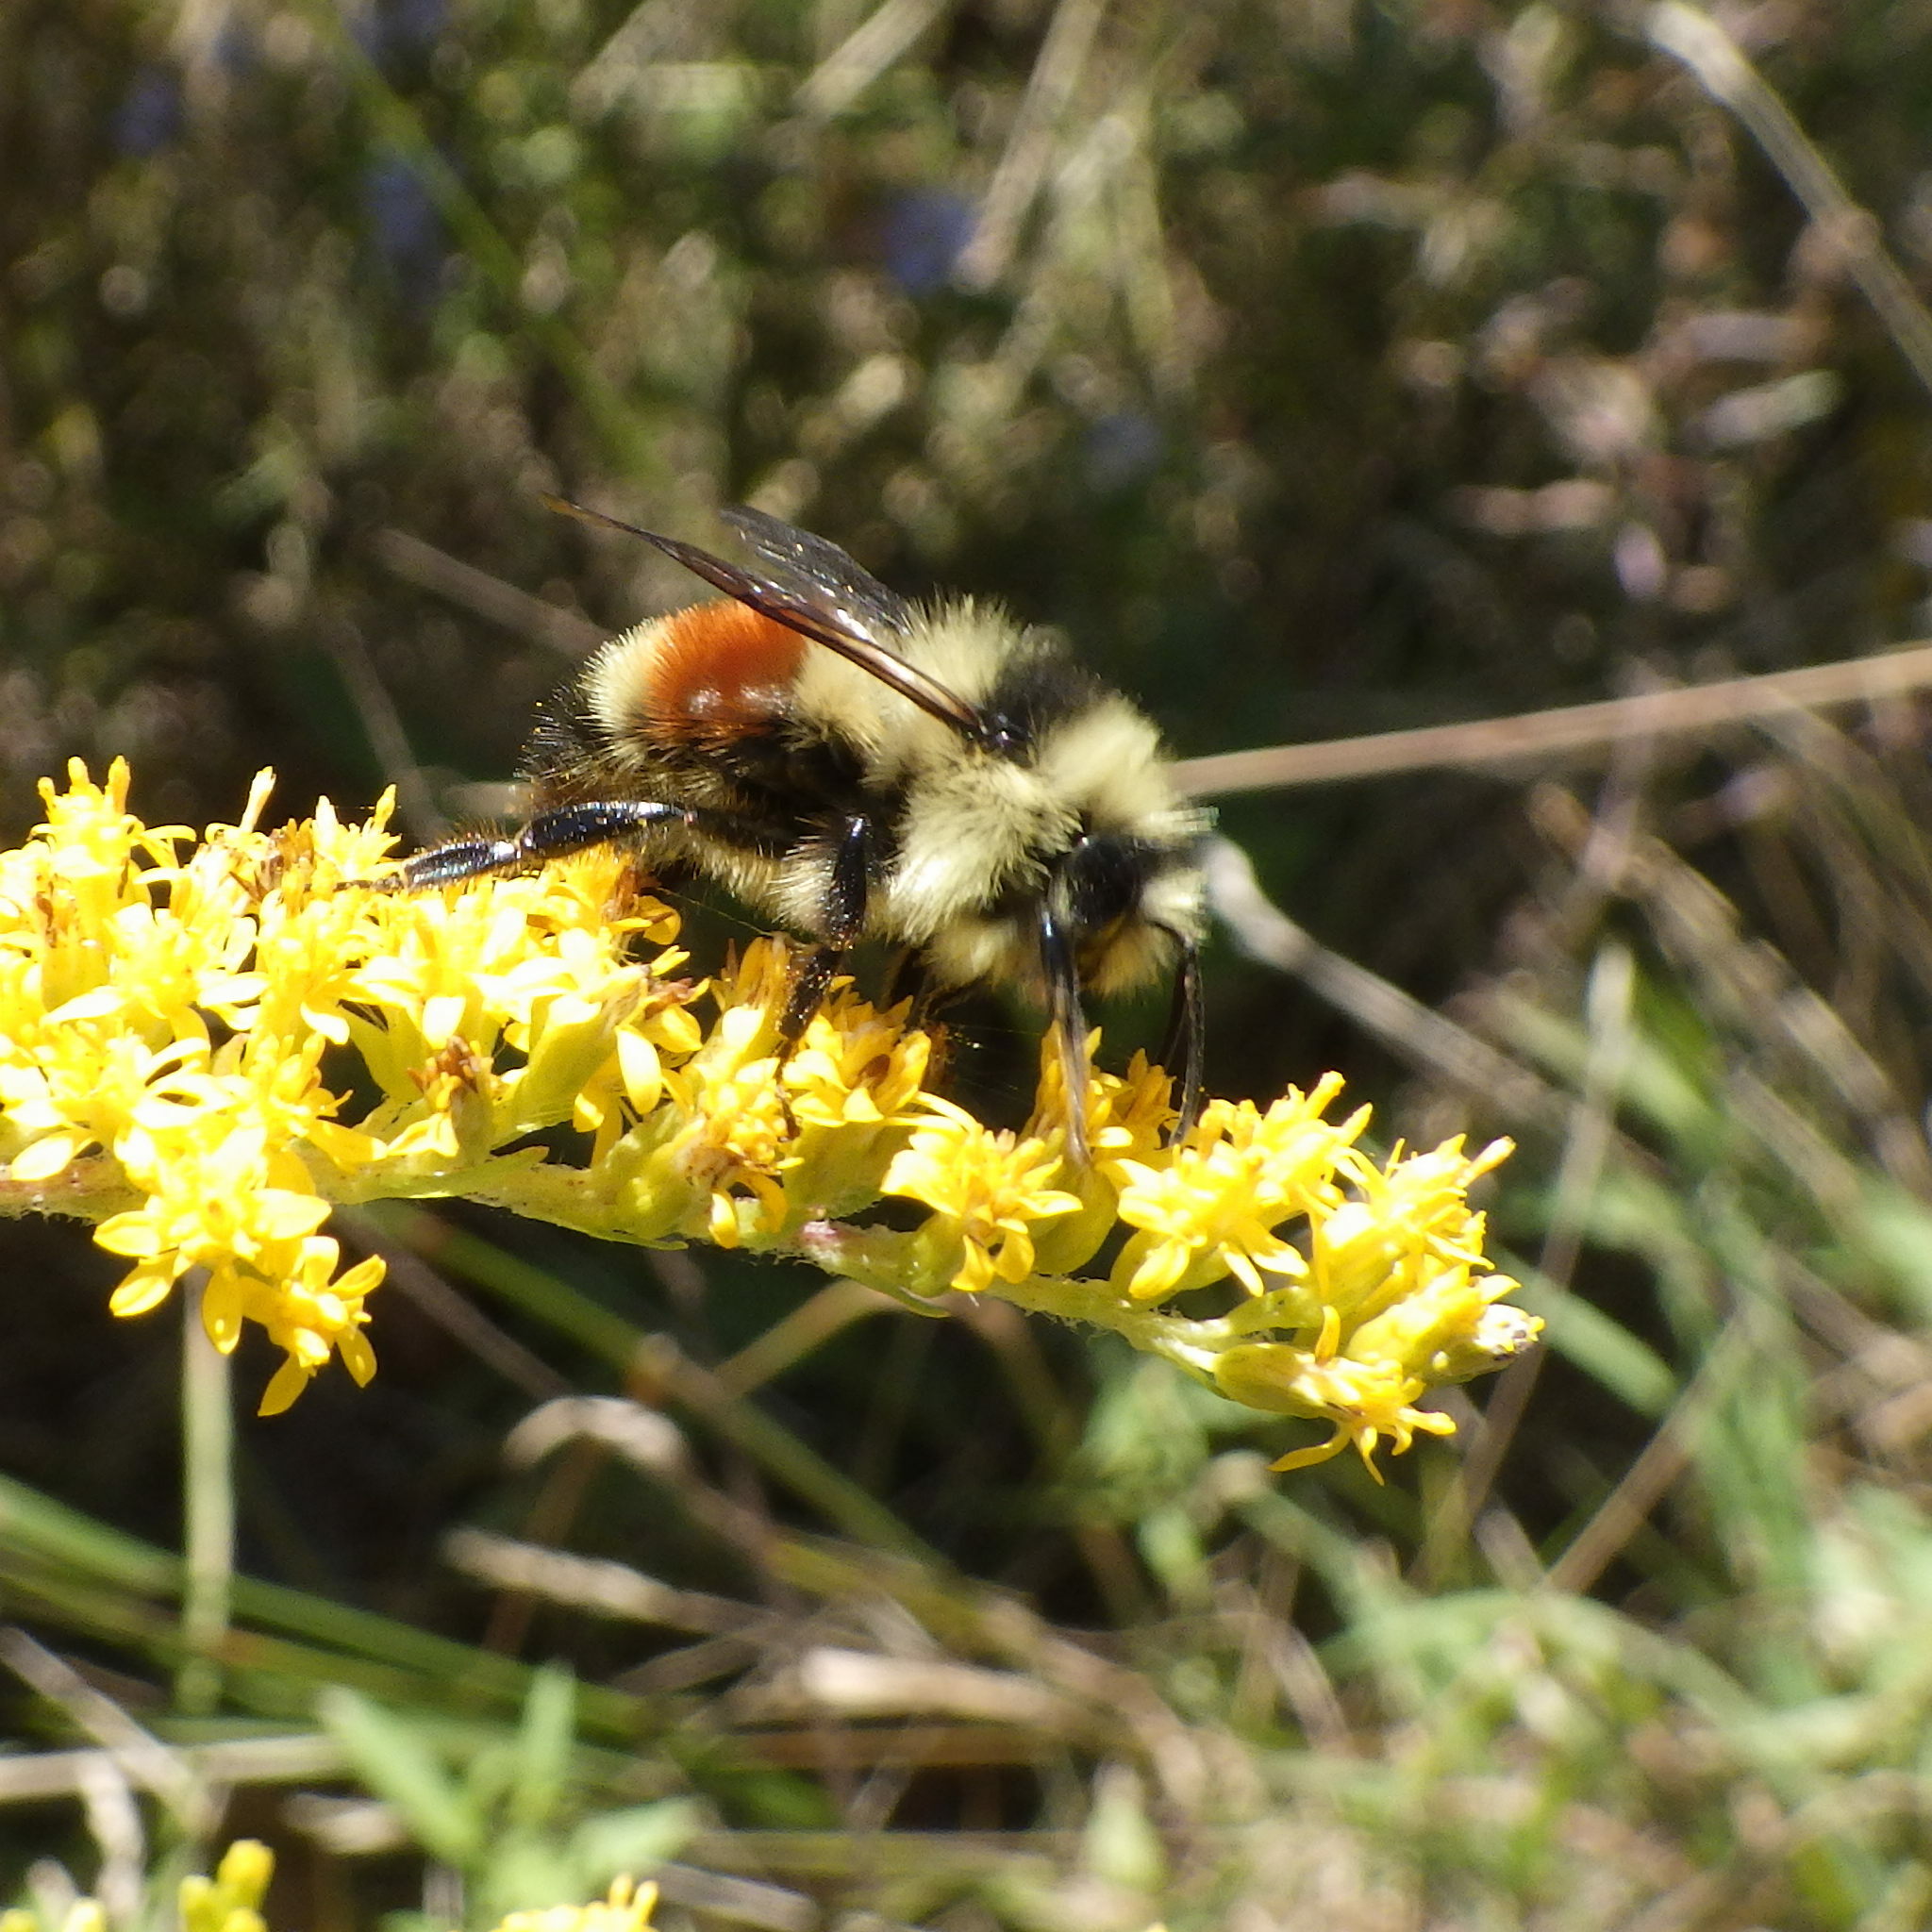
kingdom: Animalia
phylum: Arthropoda
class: Insecta
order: Hymenoptera
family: Apidae
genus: Bombus
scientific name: Bombus ternarius
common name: Tri-colored bumble bee
